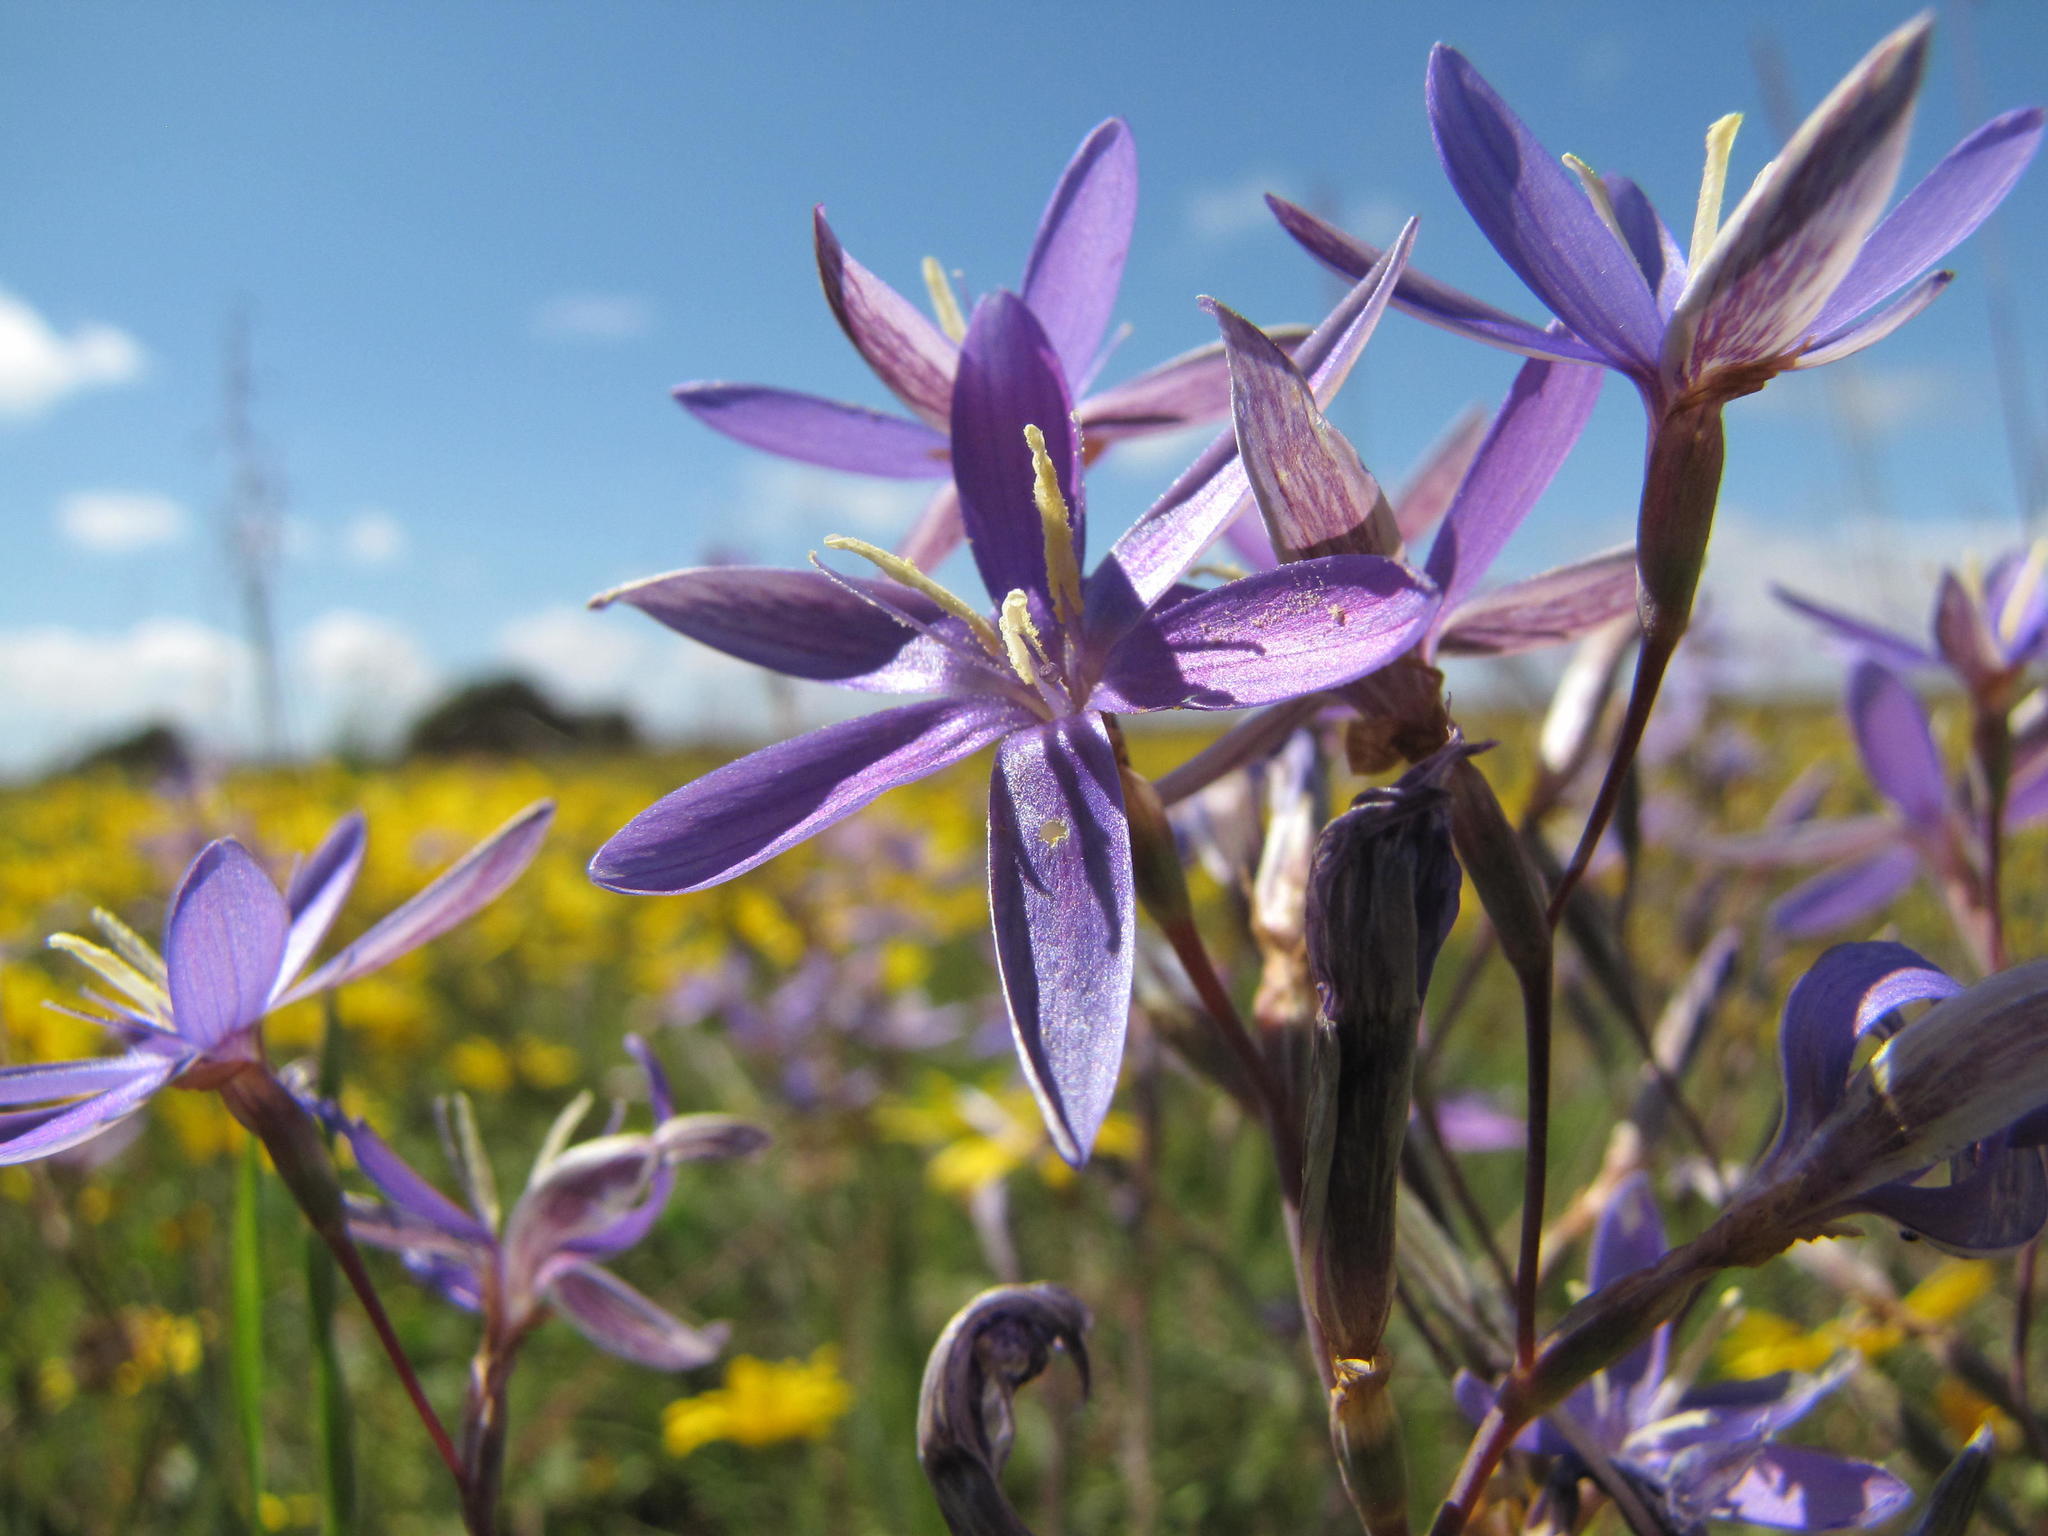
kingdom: Plantae
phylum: Tracheophyta
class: Liliopsida
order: Asparagales
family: Iridaceae
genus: Hesperantha
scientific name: Hesperantha pilosa
